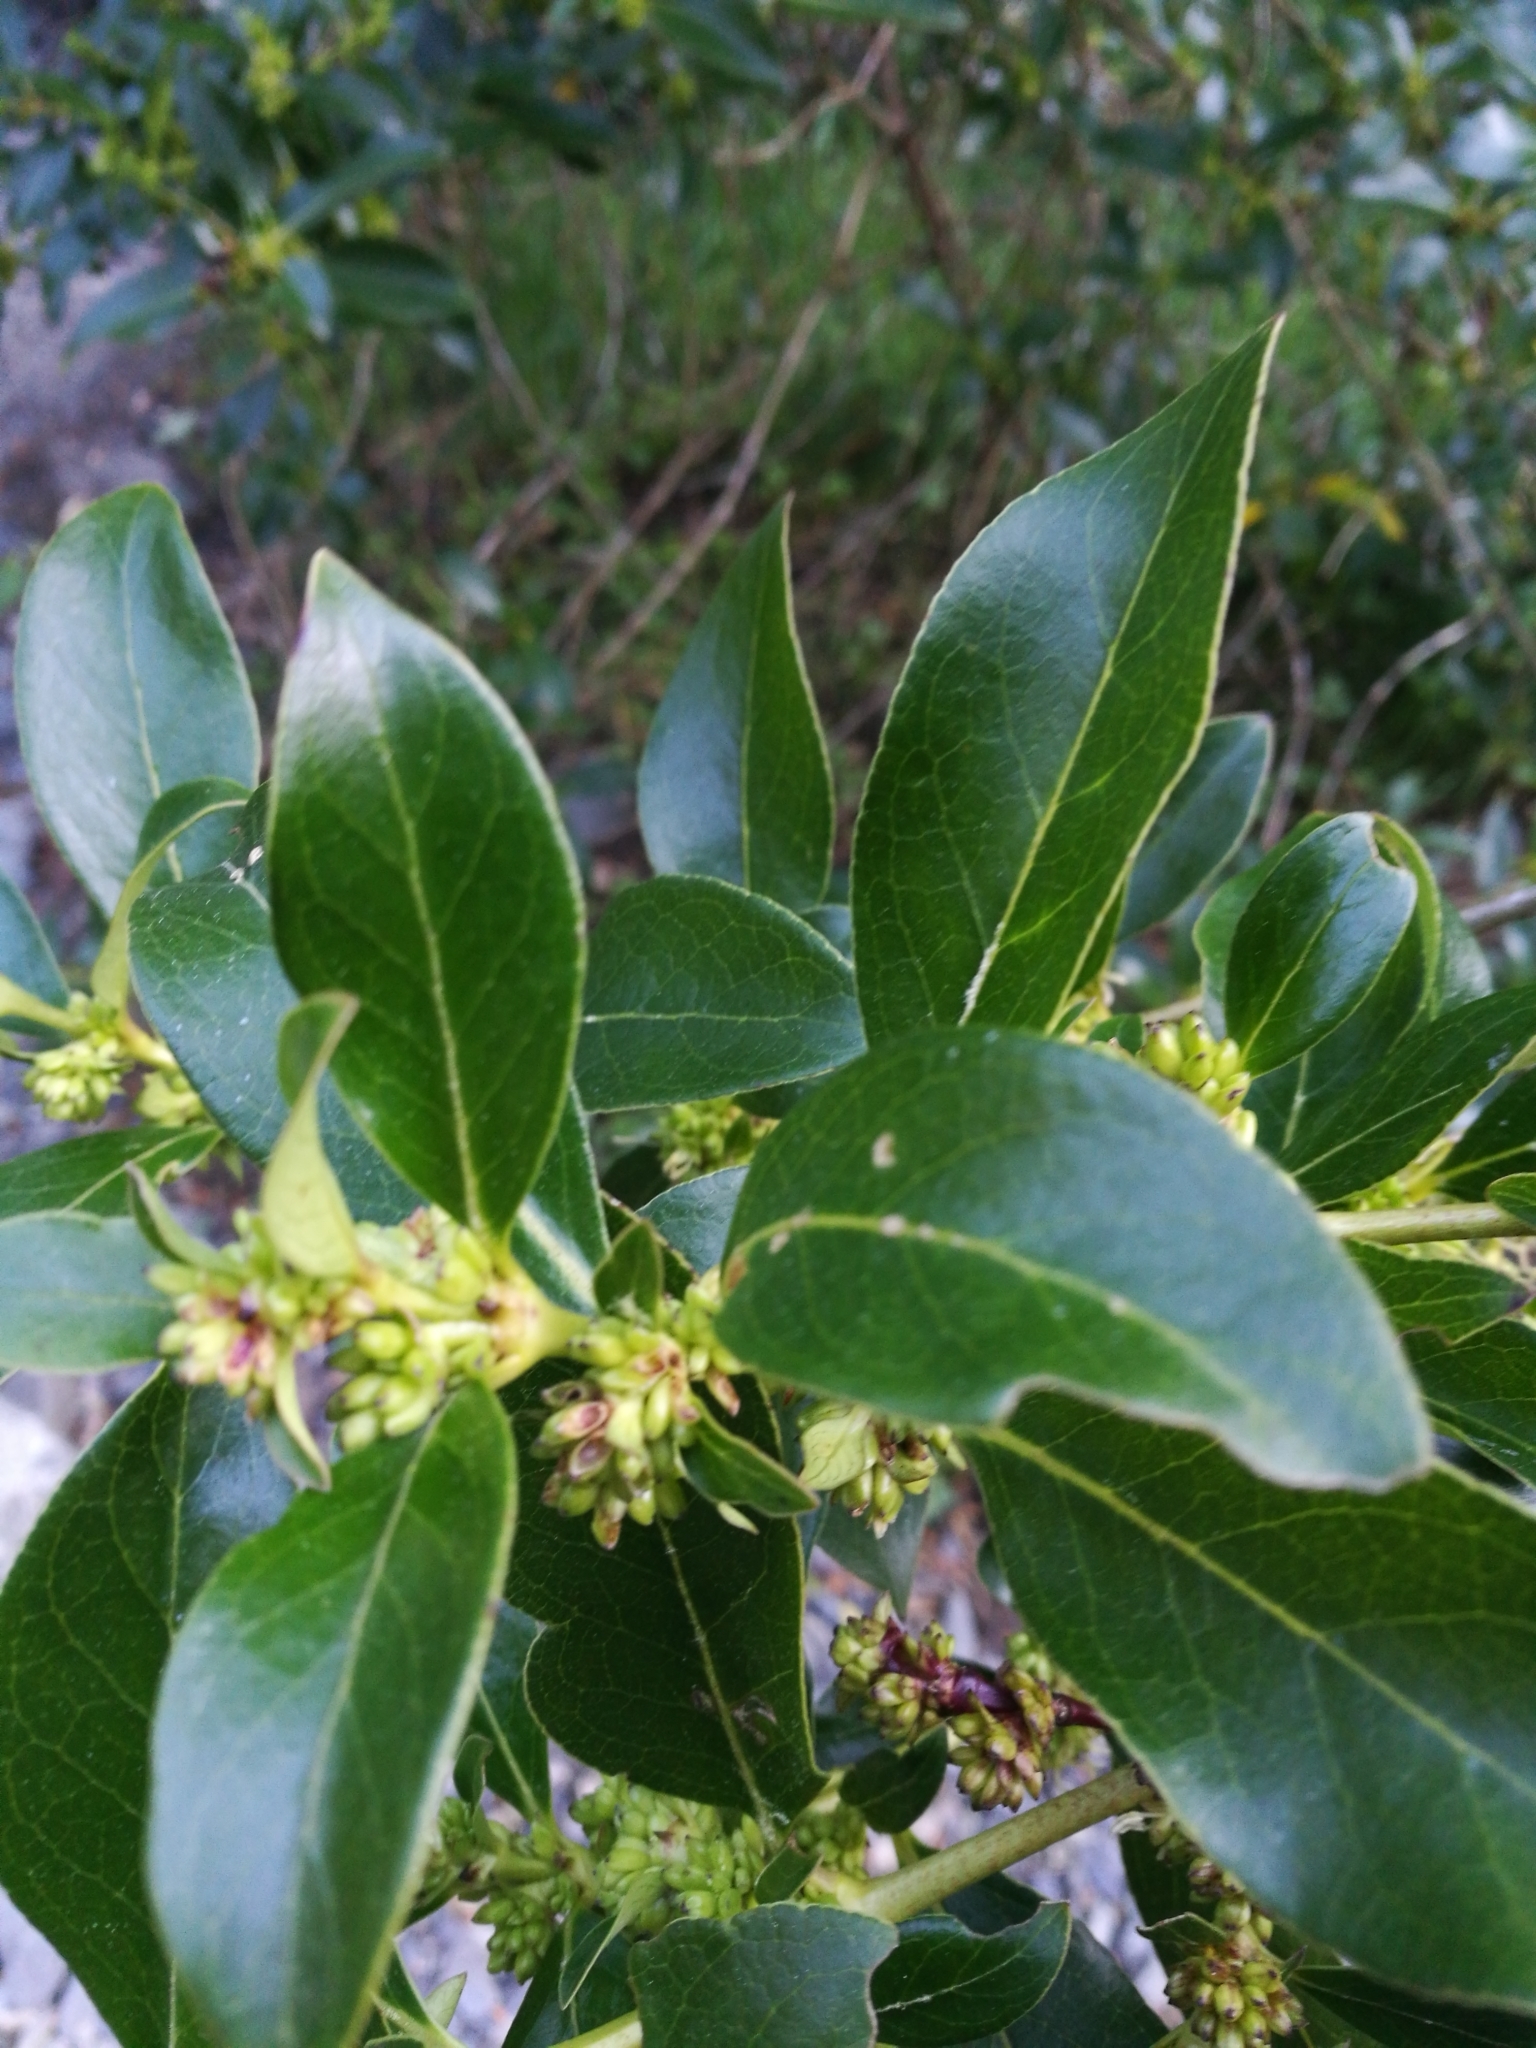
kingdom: Plantae
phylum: Tracheophyta
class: Magnoliopsida
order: Gentianales
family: Rubiaceae
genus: Coprosma
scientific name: Coprosma robusta
